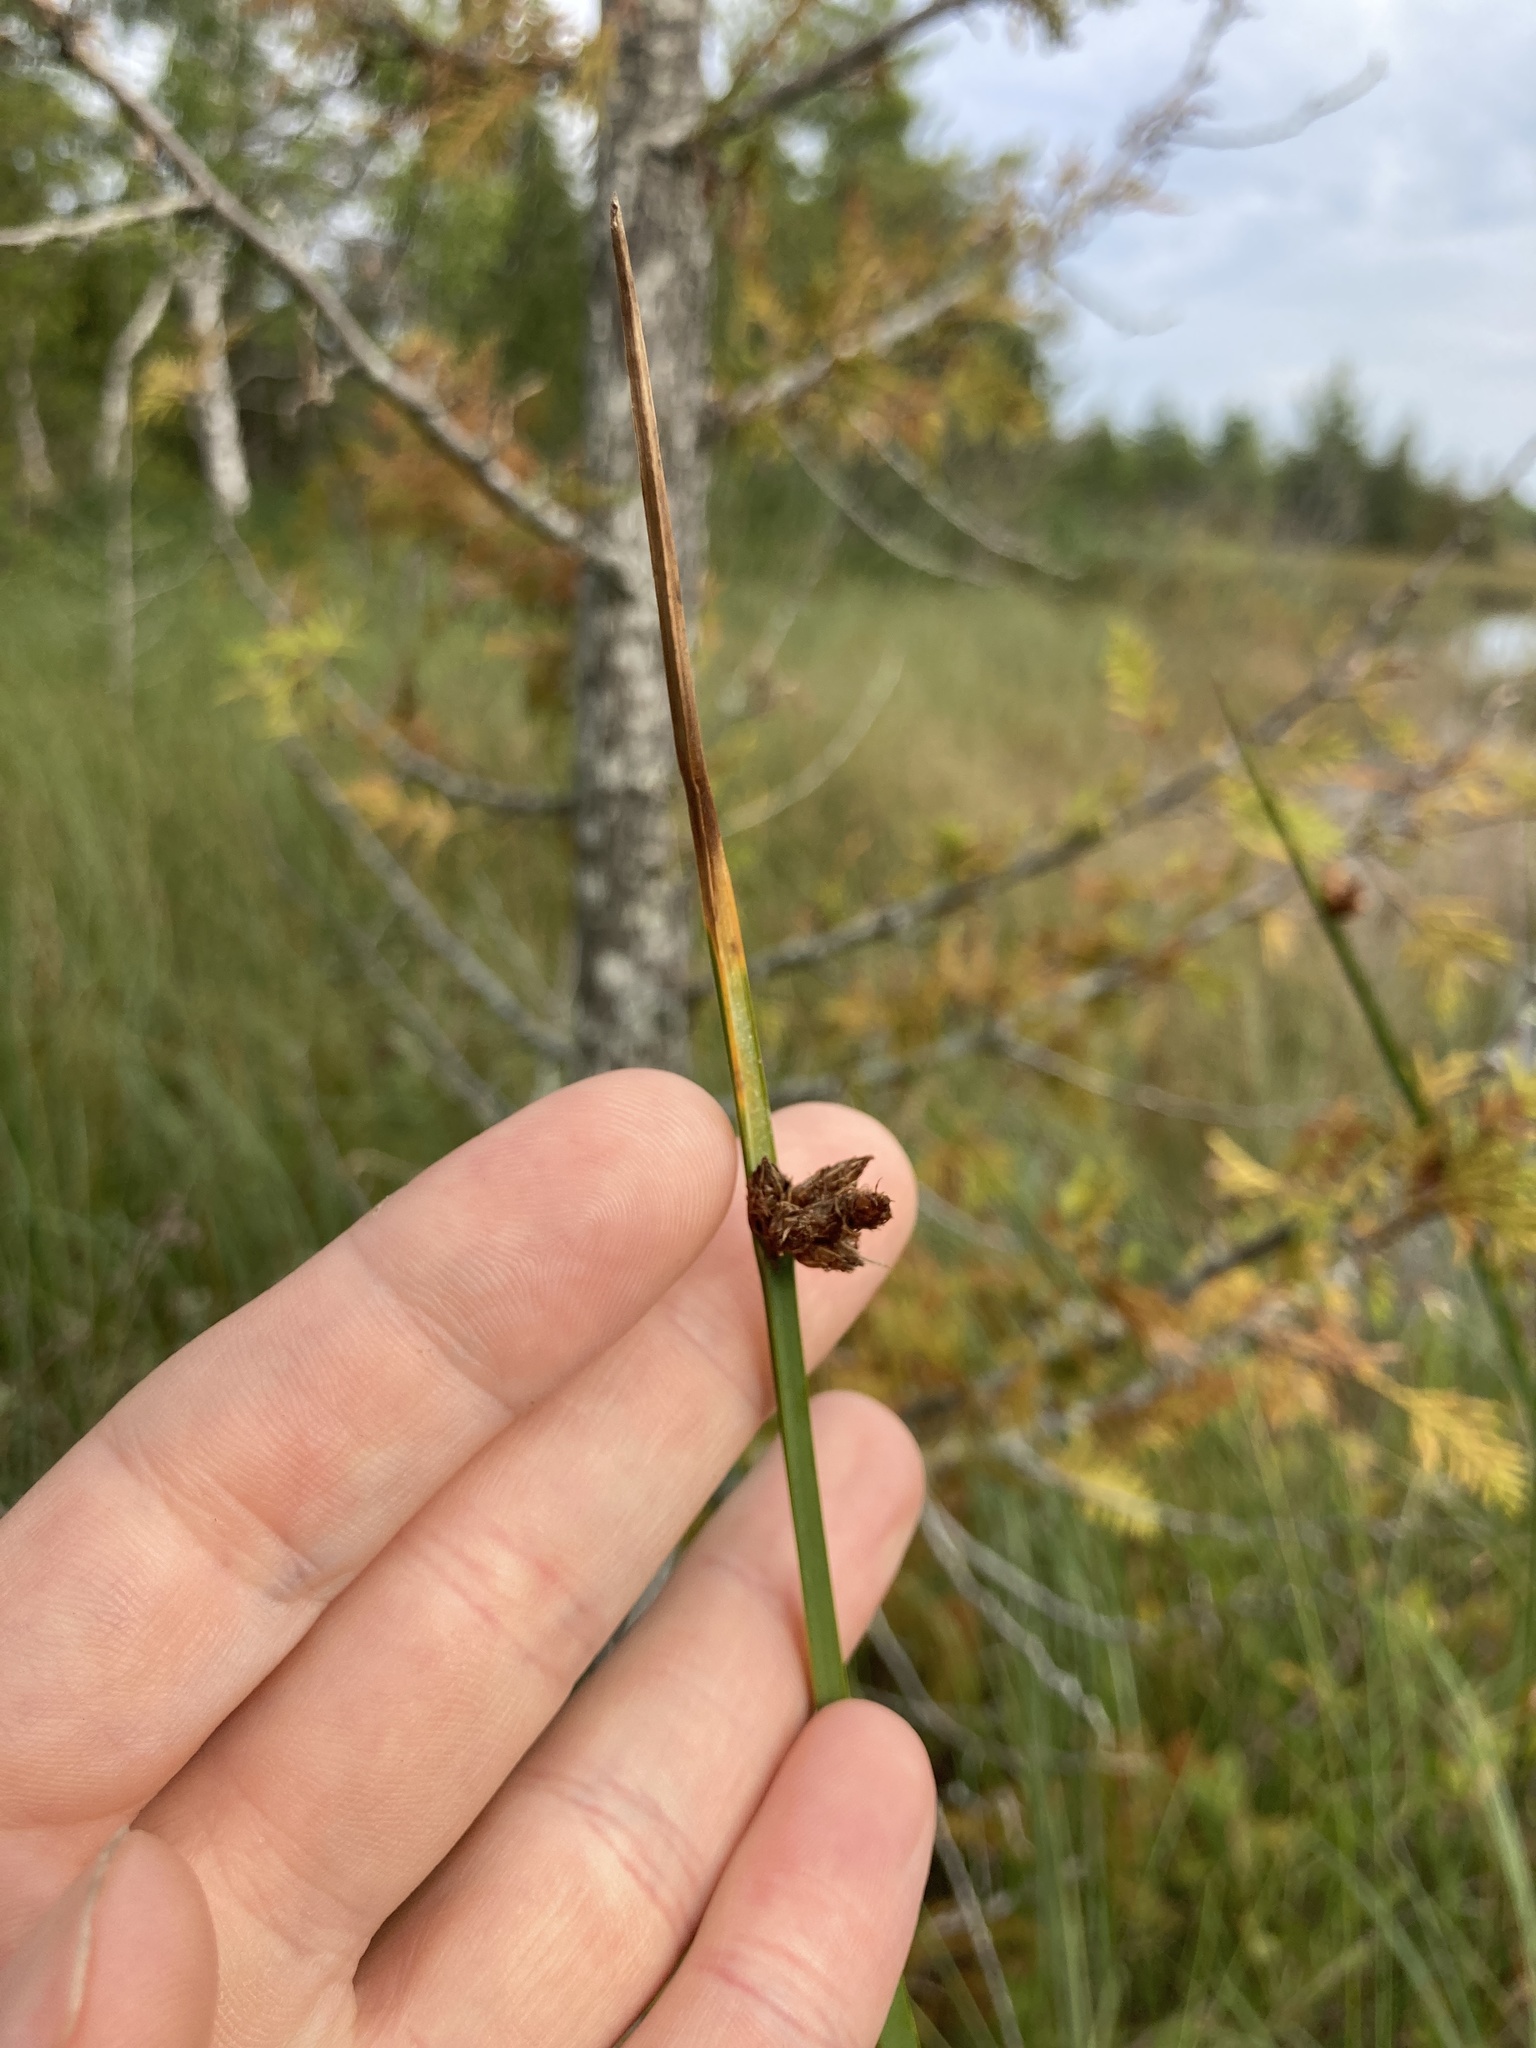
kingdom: Plantae
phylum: Tracheophyta
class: Liliopsida
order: Poales
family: Cyperaceae
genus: Schoenoplectus
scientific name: Schoenoplectus pungens
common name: Sharp club-rush
